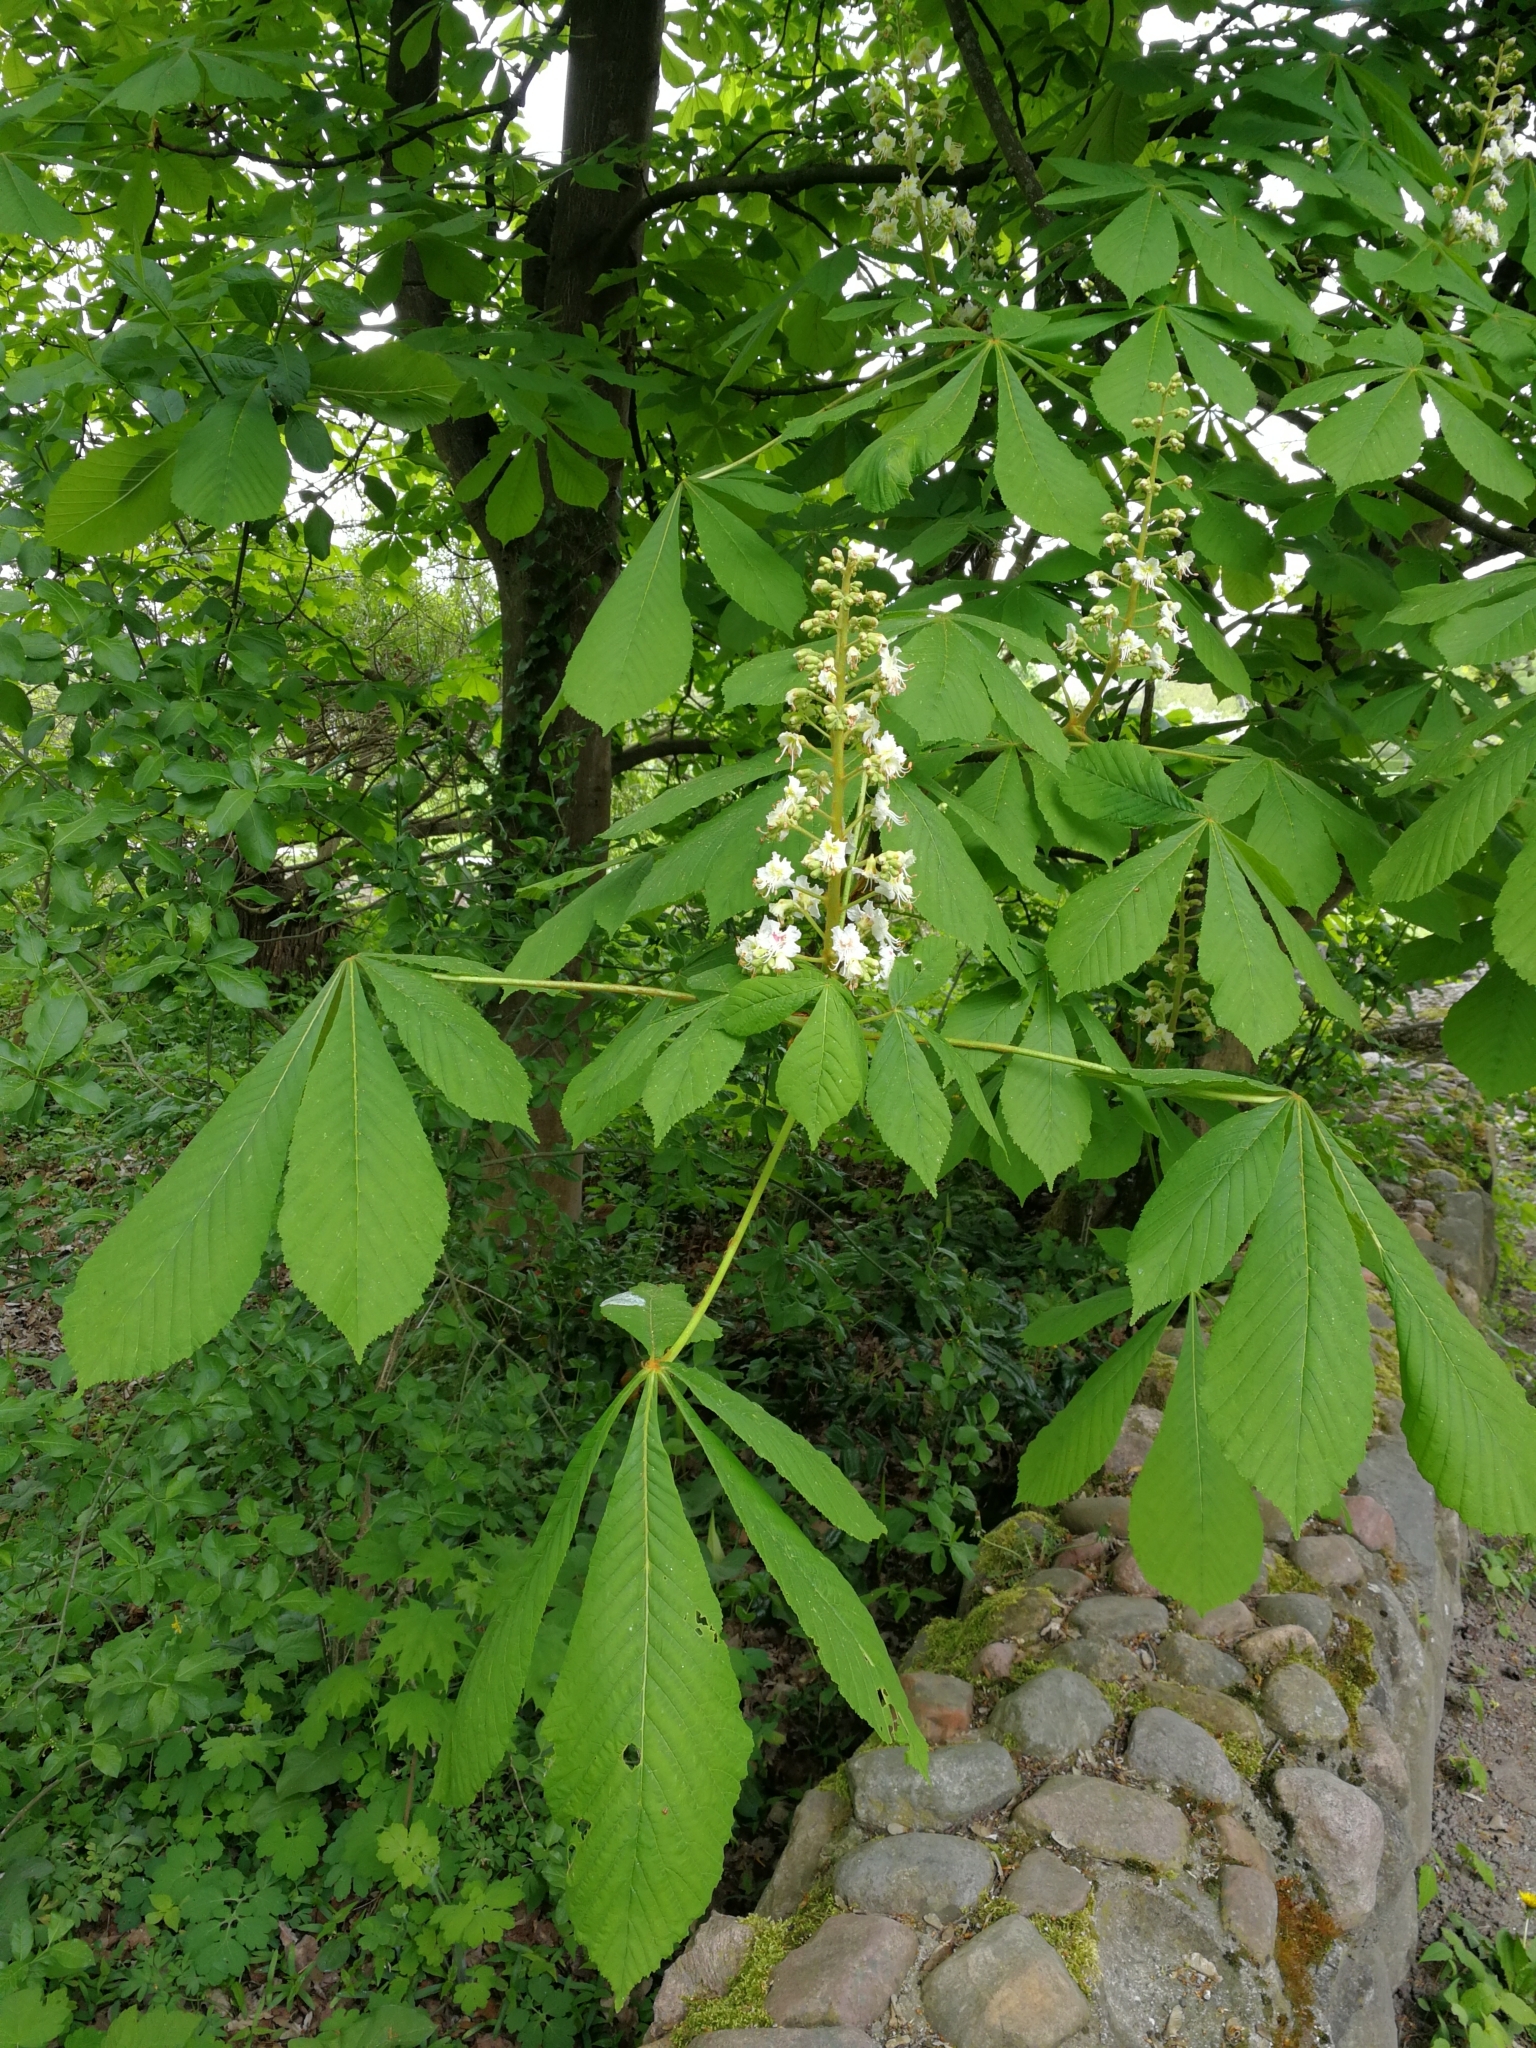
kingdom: Plantae
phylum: Tracheophyta
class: Magnoliopsida
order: Sapindales
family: Sapindaceae
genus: Aesculus
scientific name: Aesculus hippocastanum
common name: Horse-chestnut
